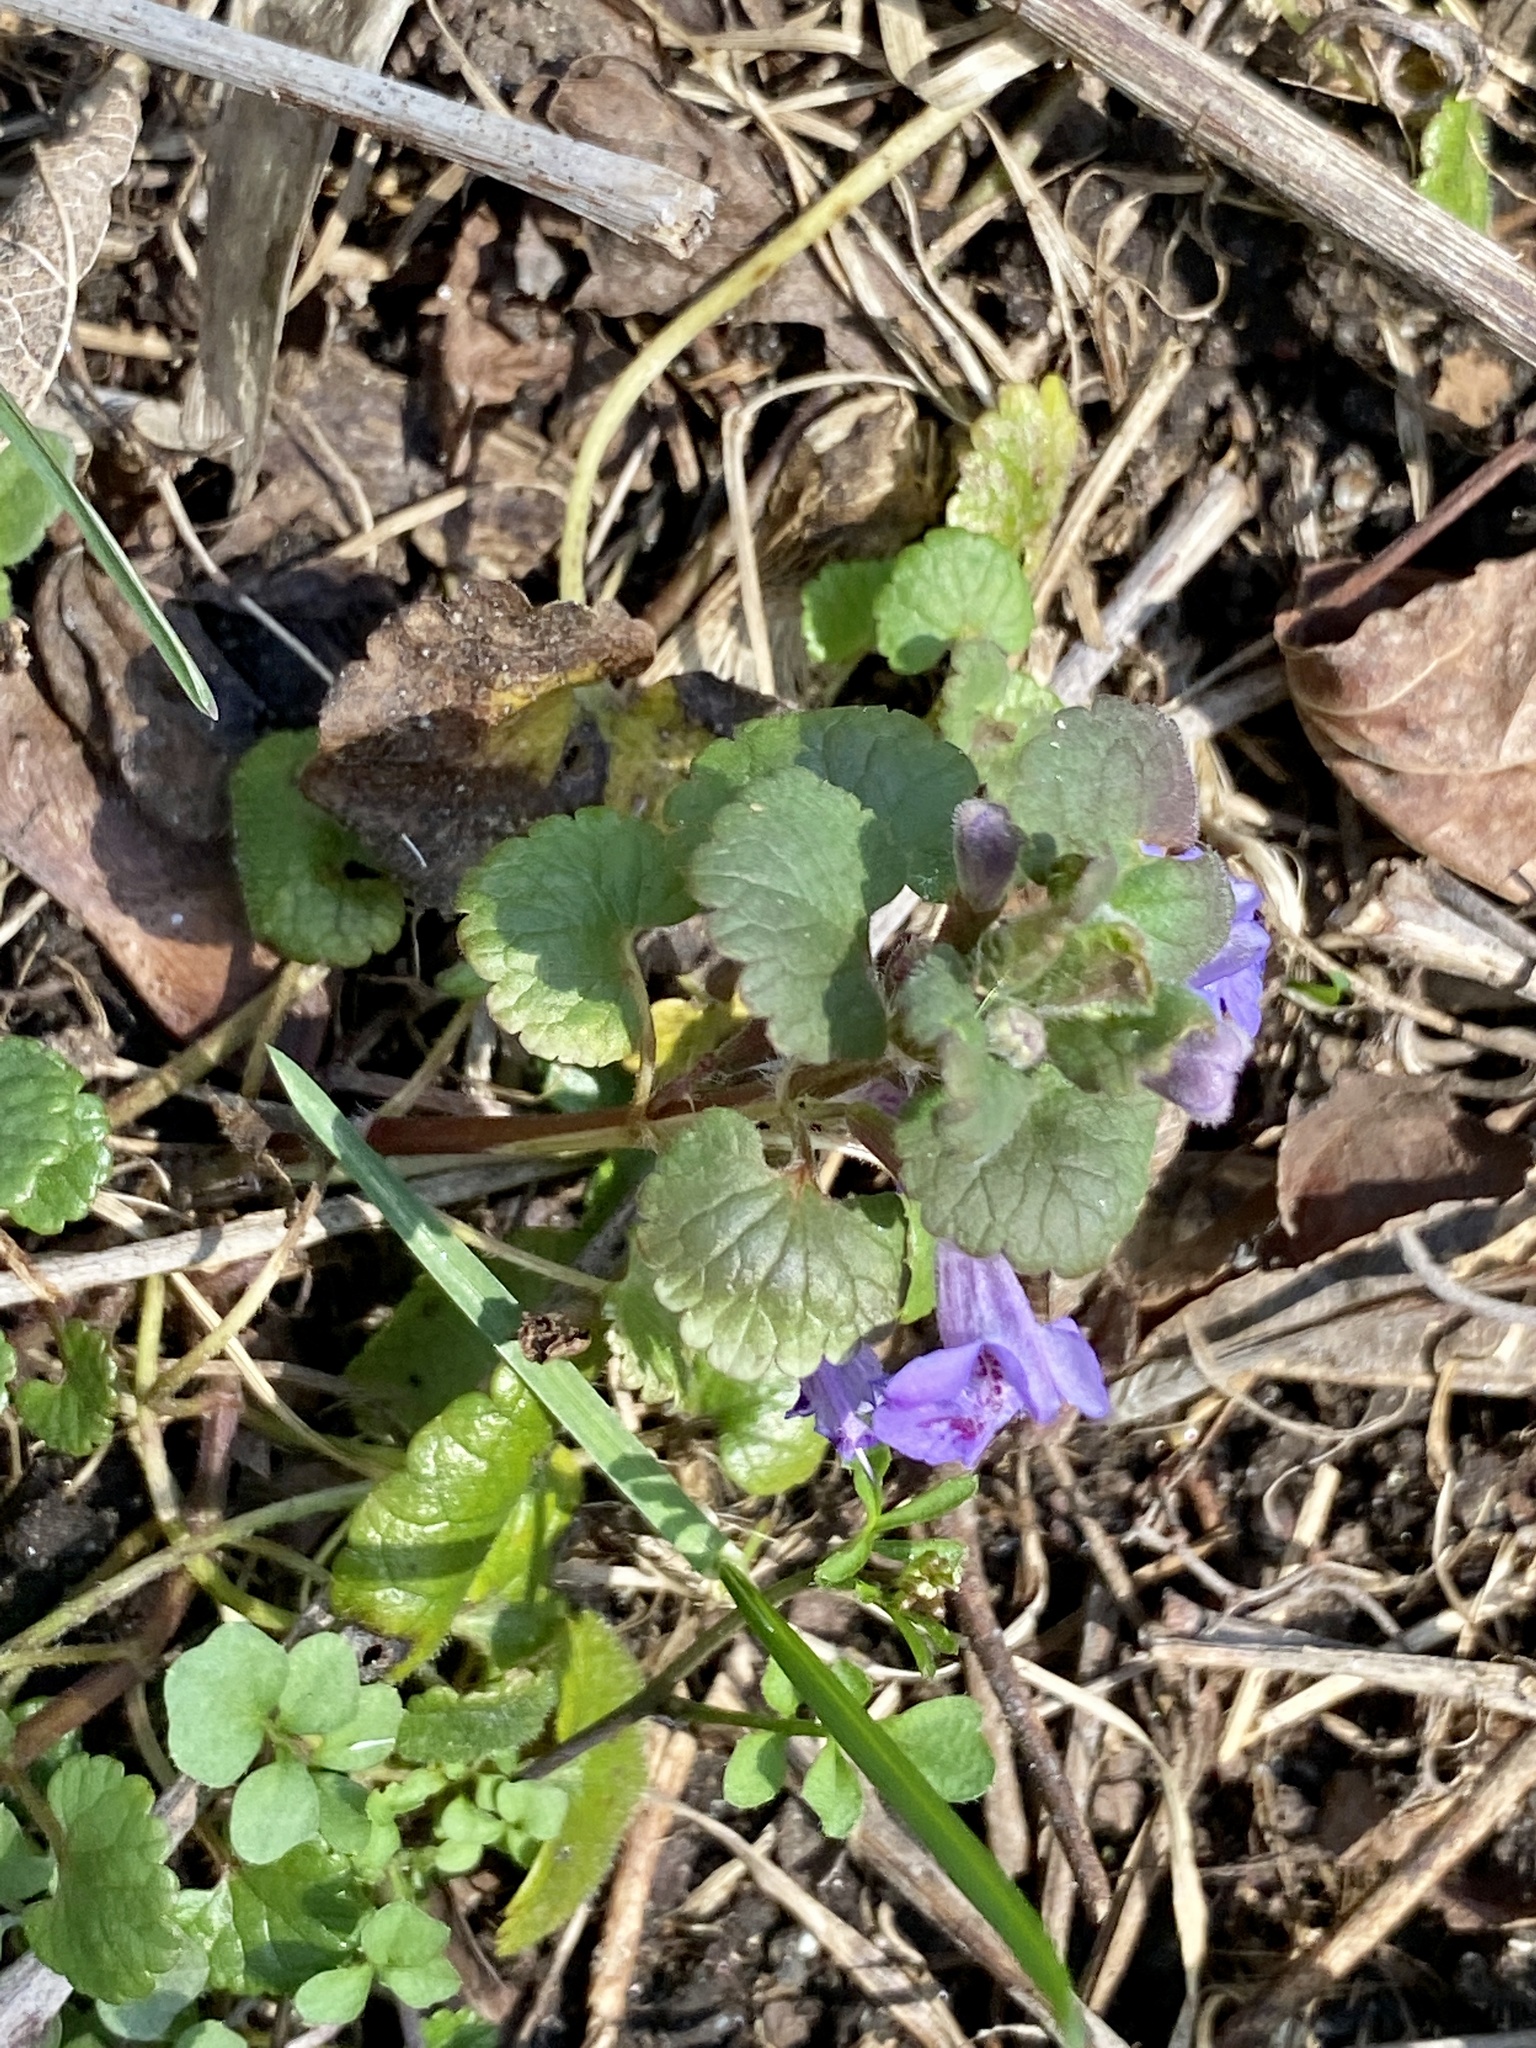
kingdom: Plantae
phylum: Tracheophyta
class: Magnoliopsida
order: Lamiales
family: Lamiaceae
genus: Glechoma
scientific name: Glechoma hederacea
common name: Ground ivy
